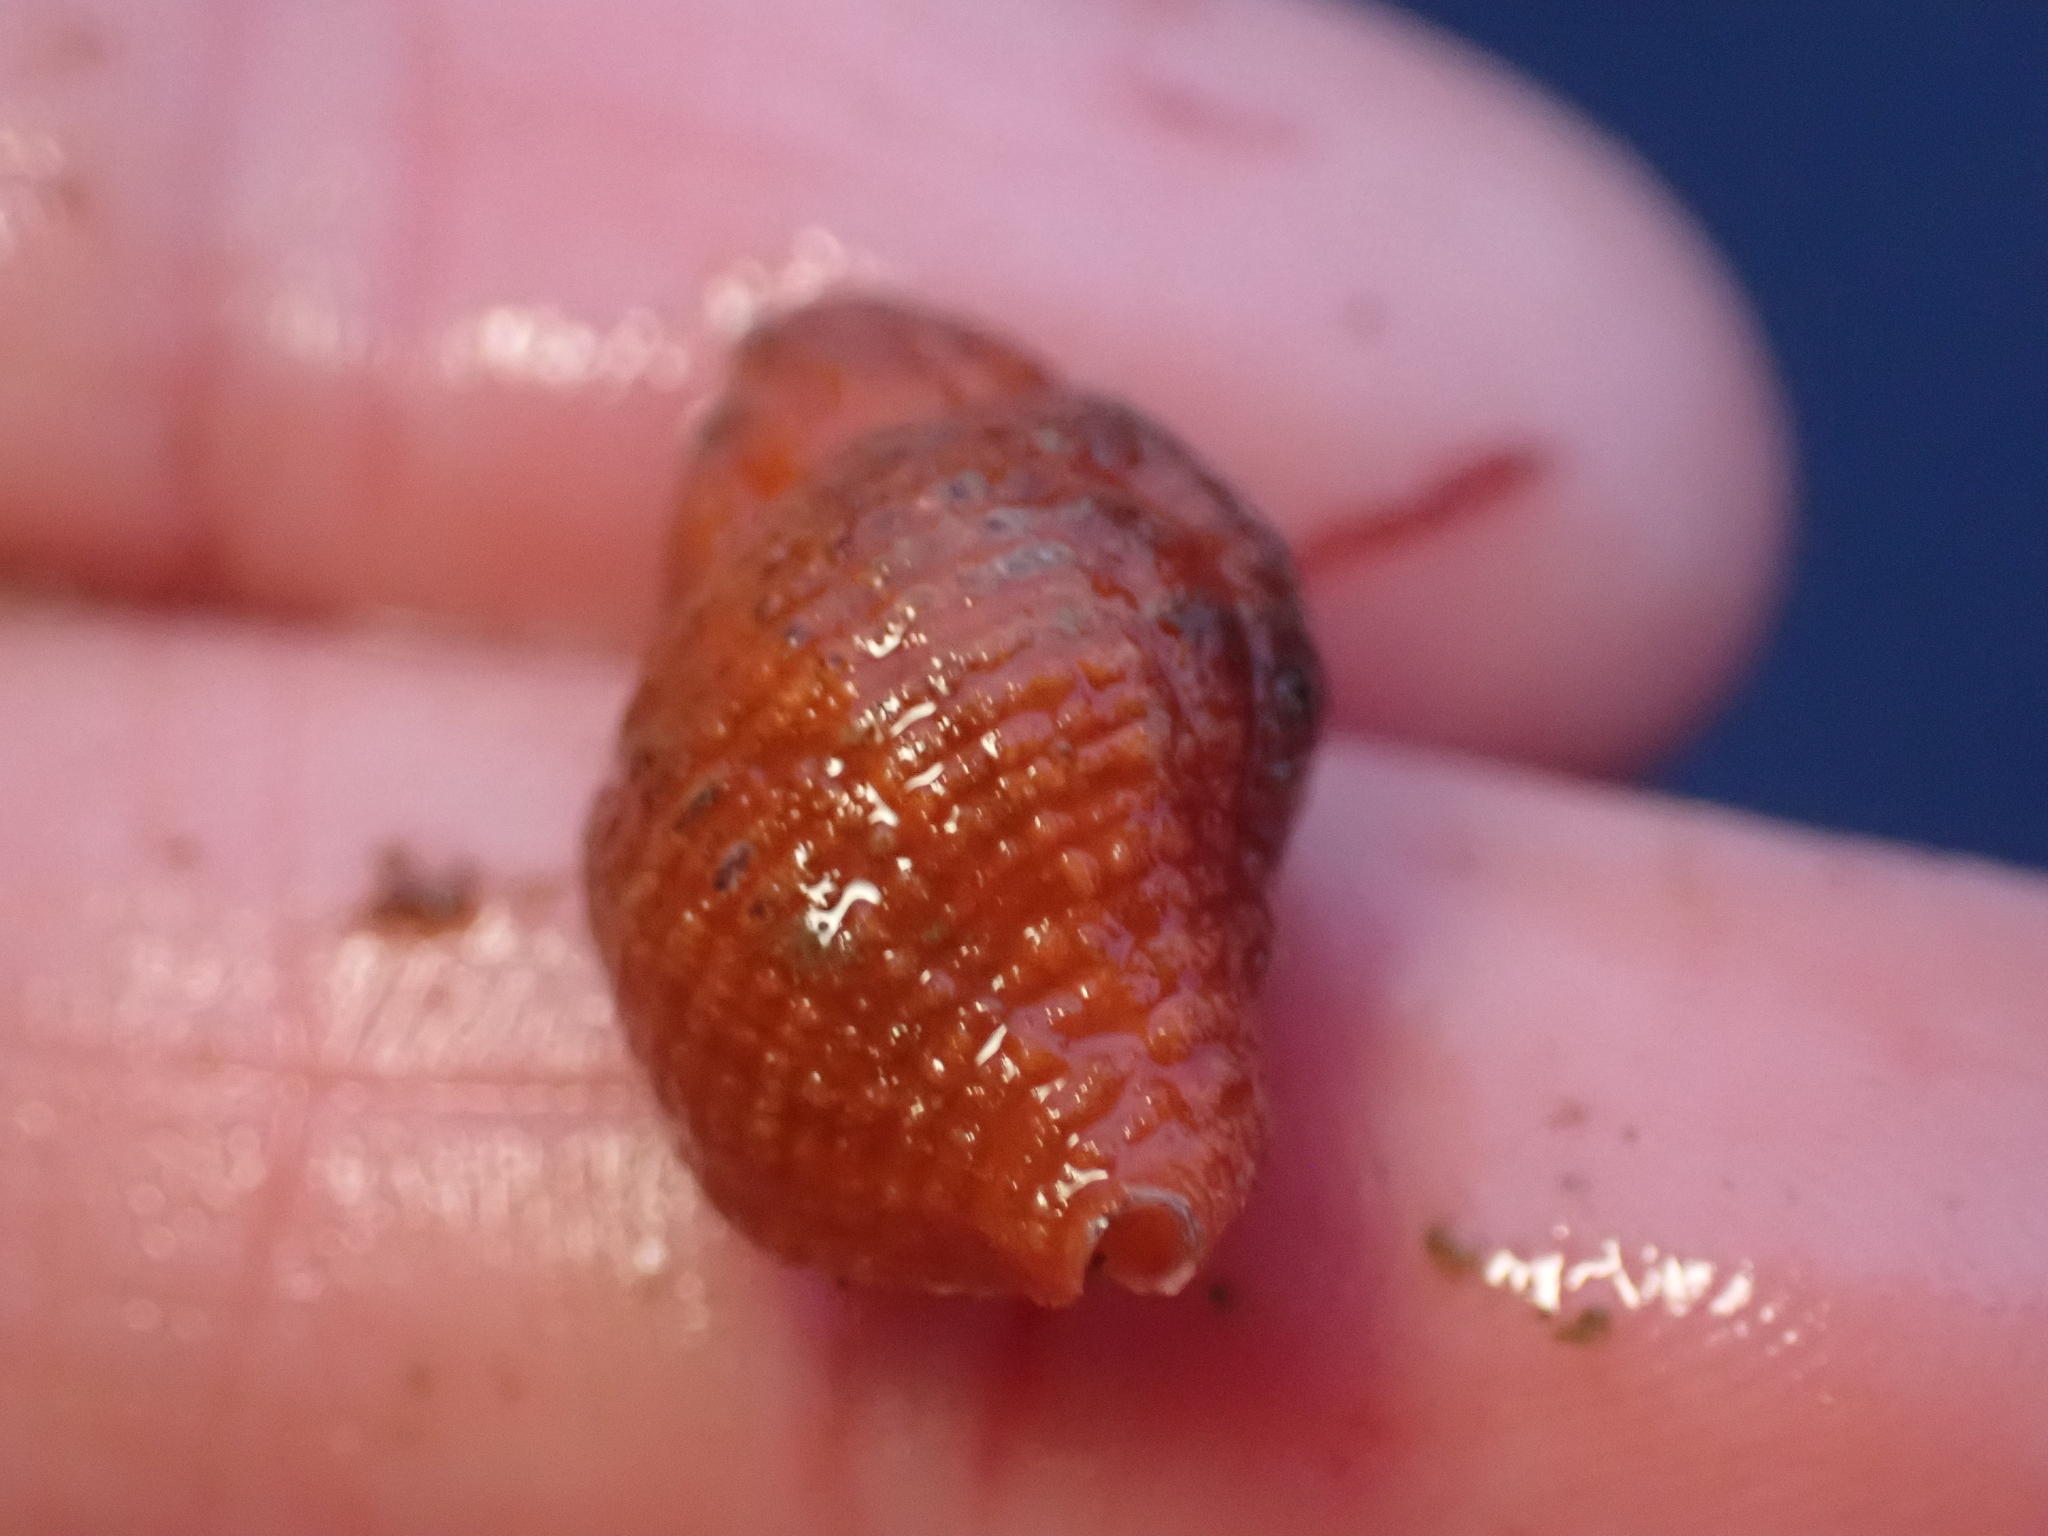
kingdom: Animalia
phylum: Mollusca
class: Gastropoda
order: Neogastropoda
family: Muricidae
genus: Paciocinebrina
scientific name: Paciocinebrina lurida
